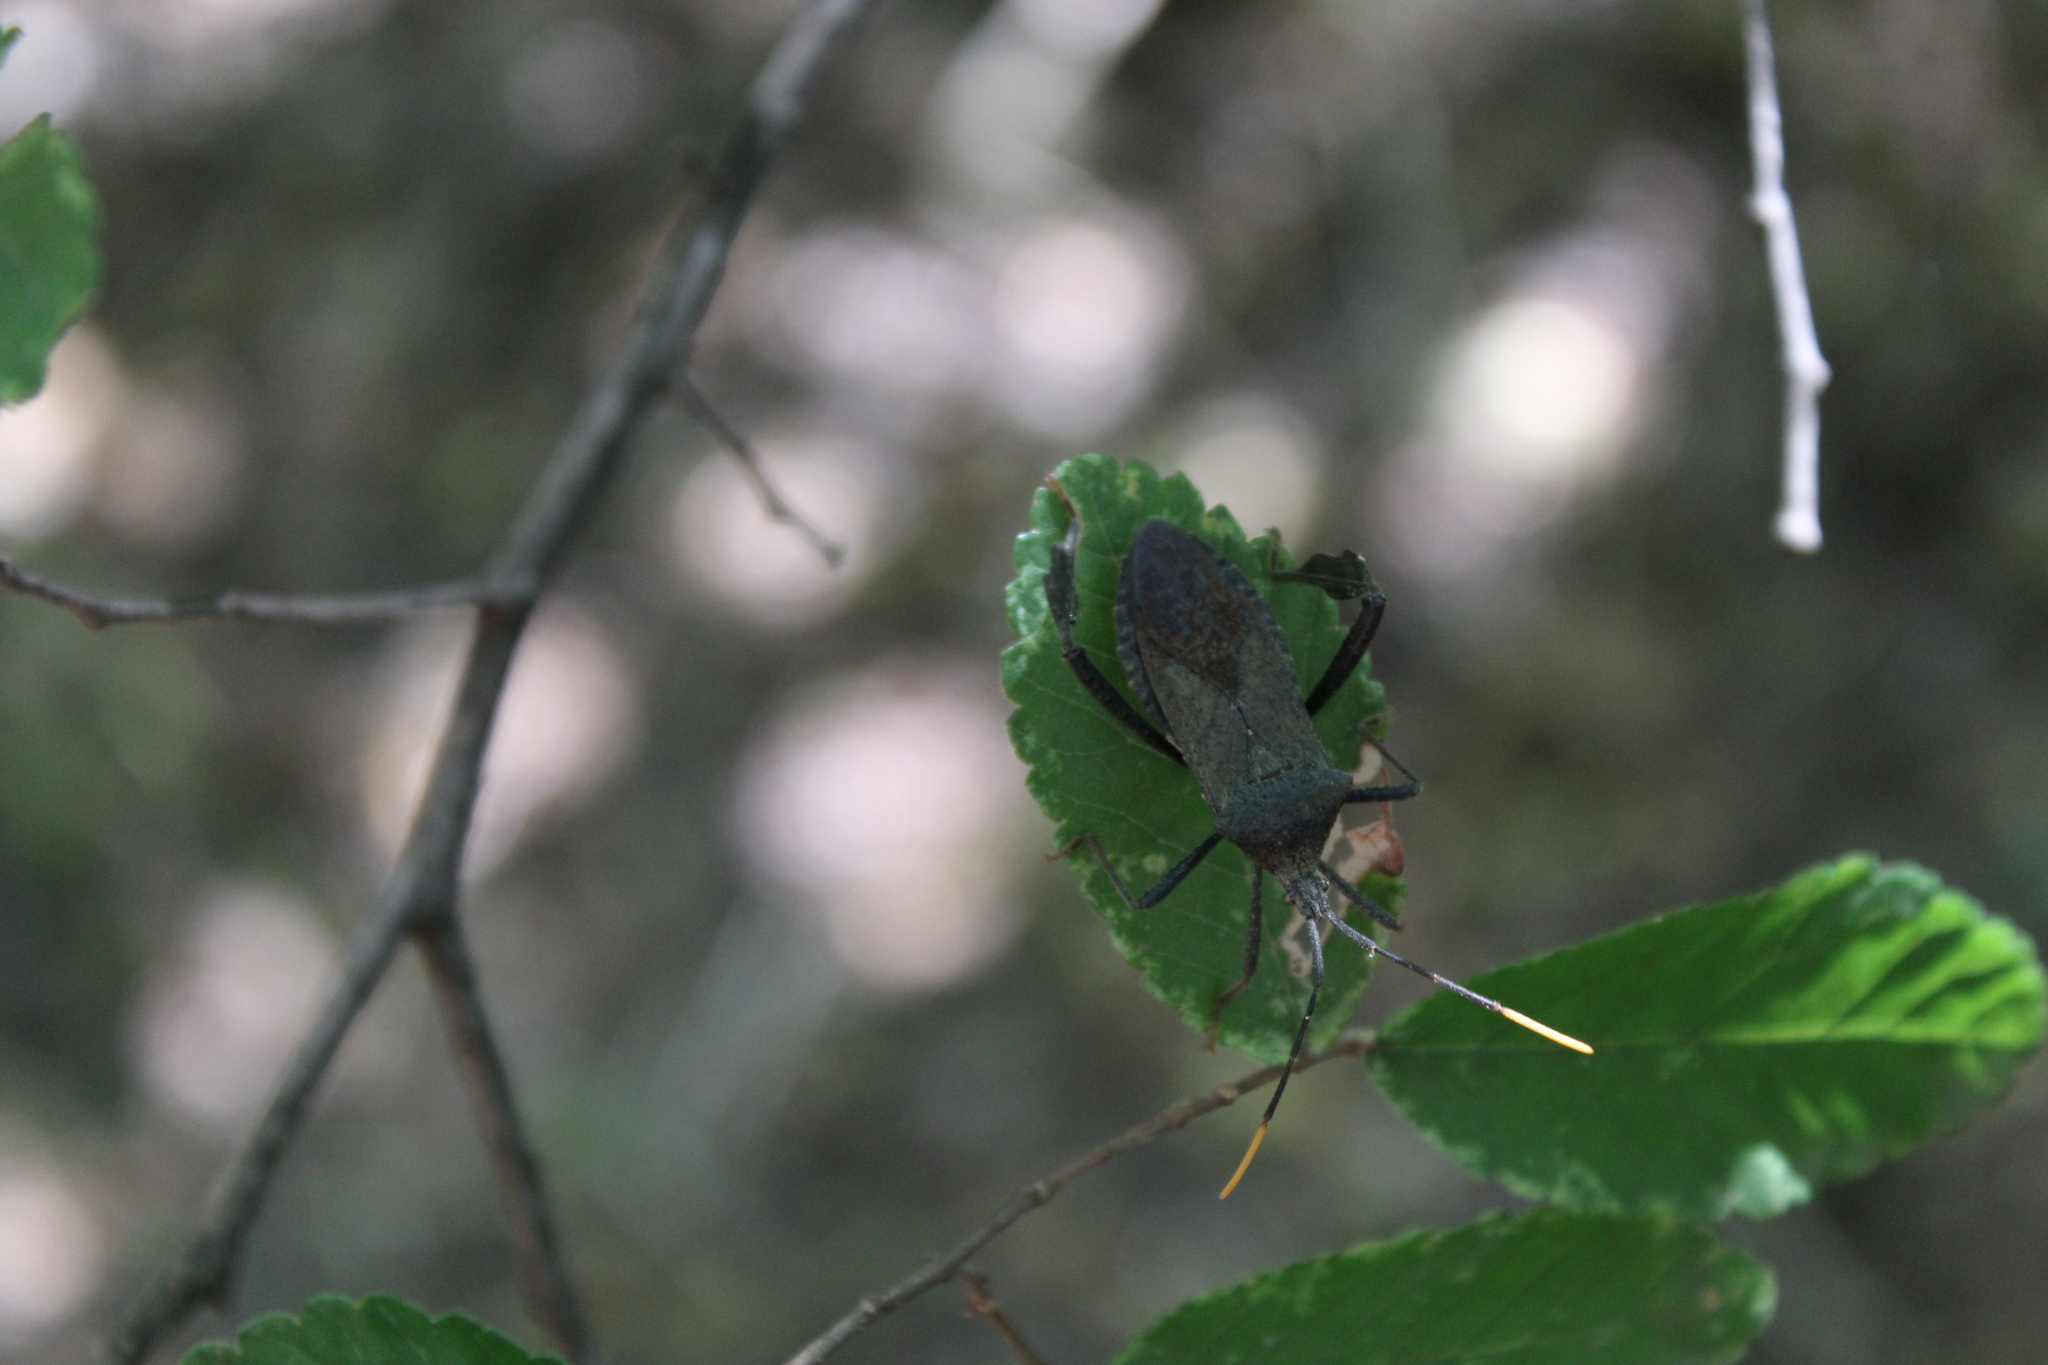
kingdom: Animalia
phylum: Arthropoda
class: Insecta
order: Hemiptera
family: Coreidae
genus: Acanthocephala
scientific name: Acanthocephala terminalis
